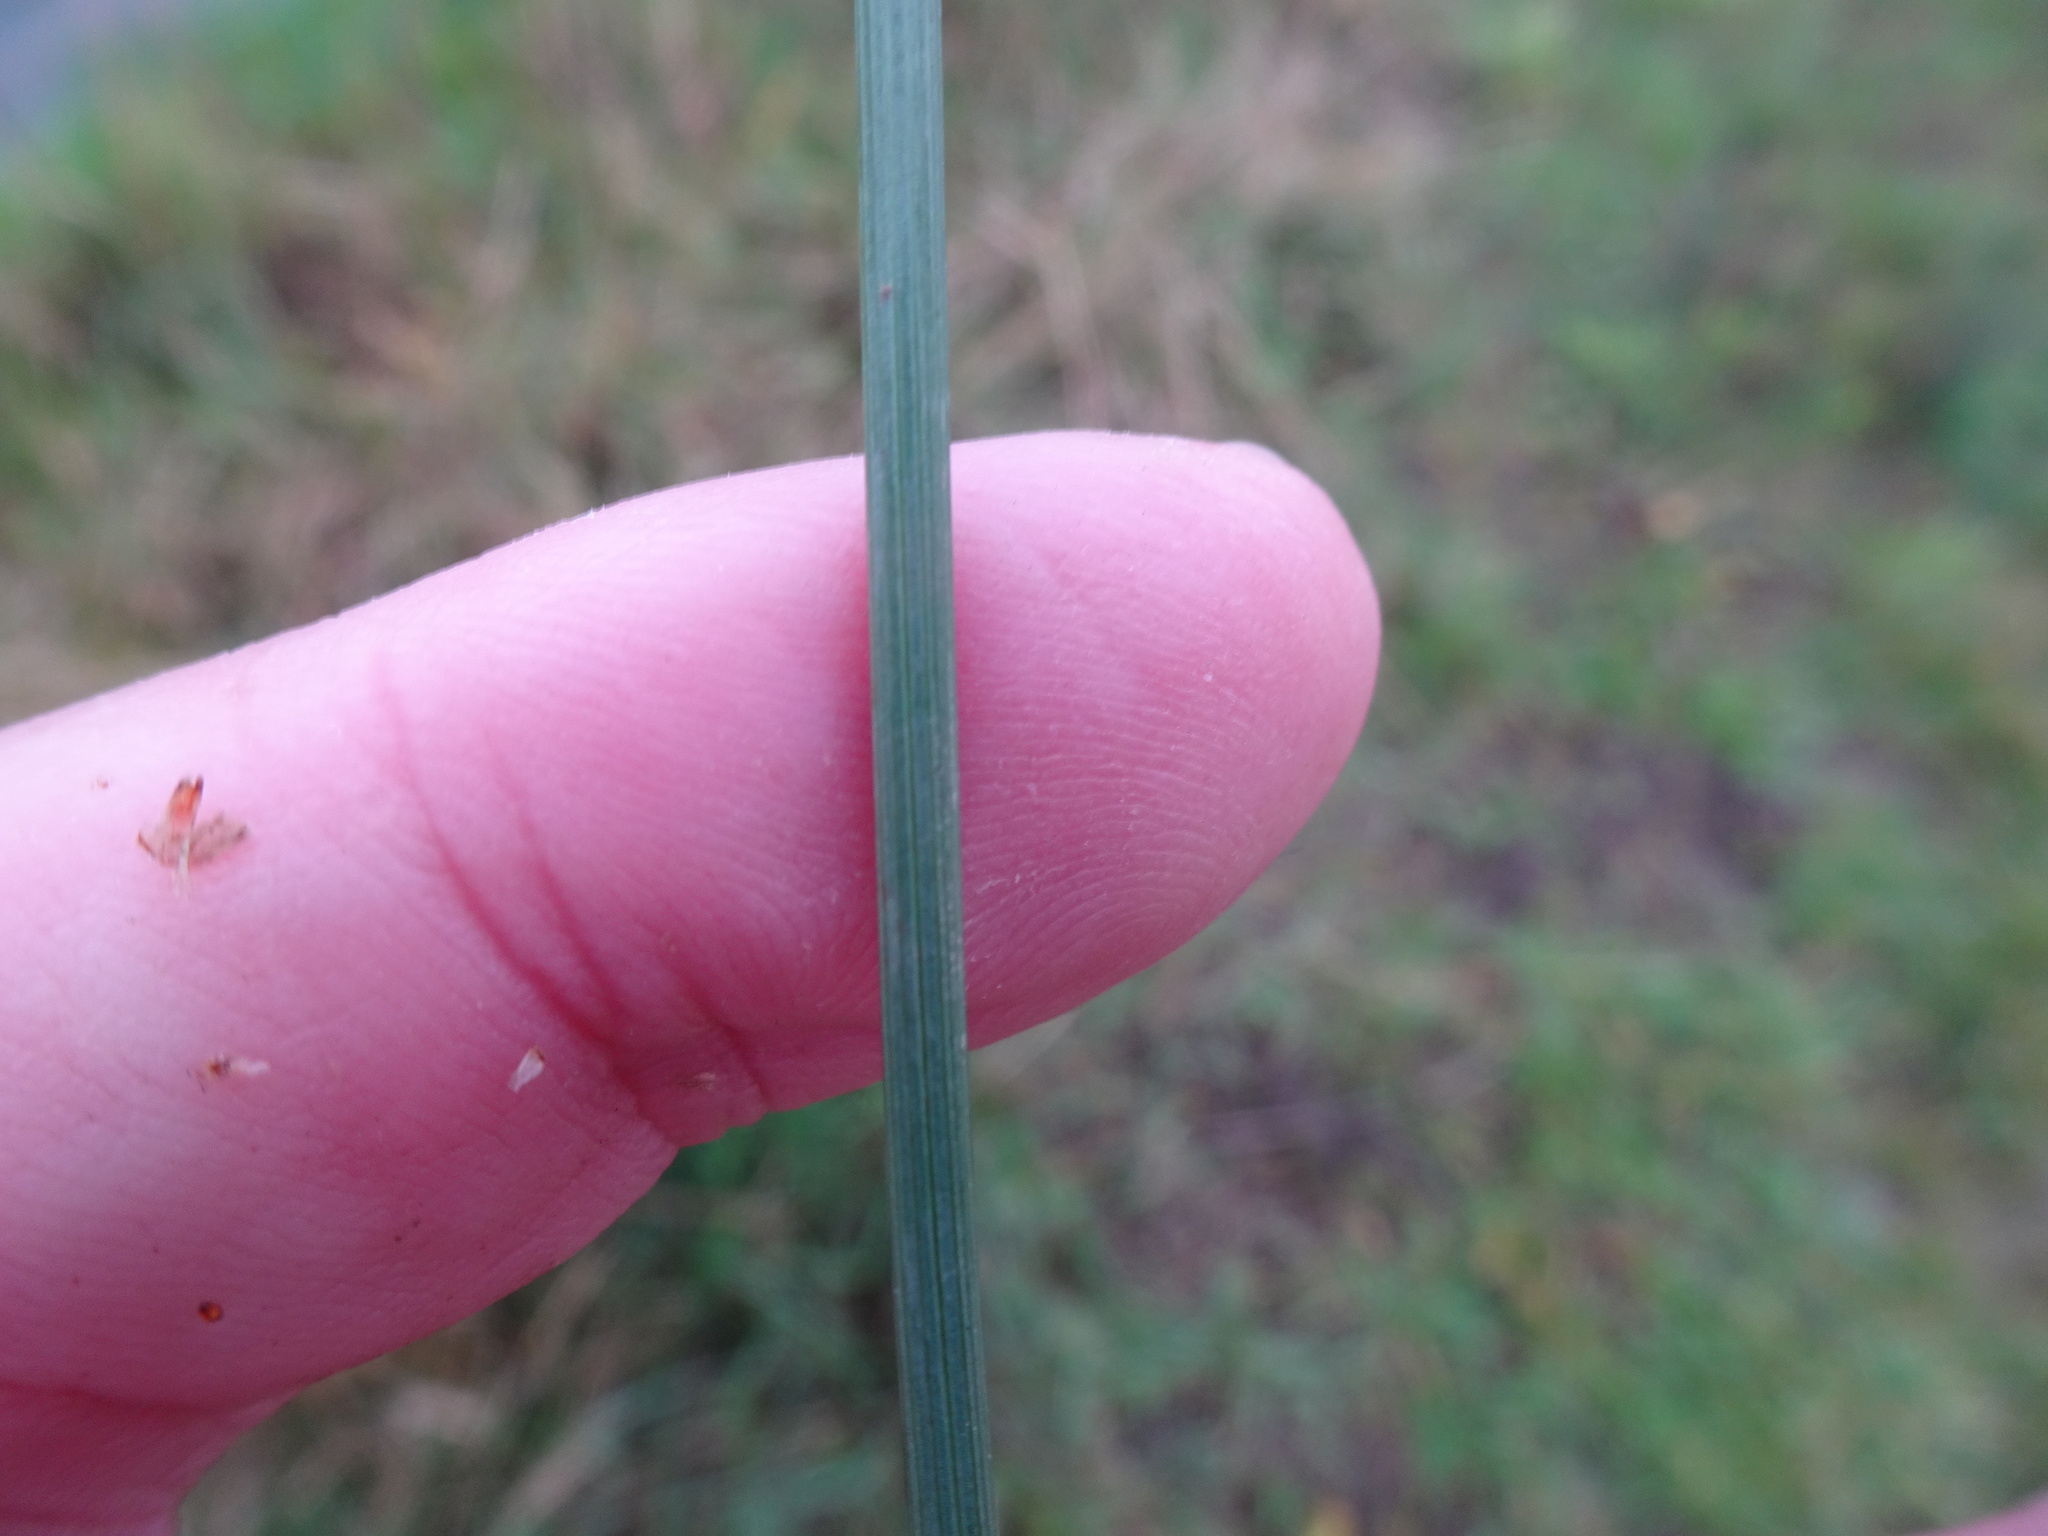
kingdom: Plantae
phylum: Tracheophyta
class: Liliopsida
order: Poales
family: Juncaceae
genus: Juncus
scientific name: Juncus inflexus
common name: Hard rush
